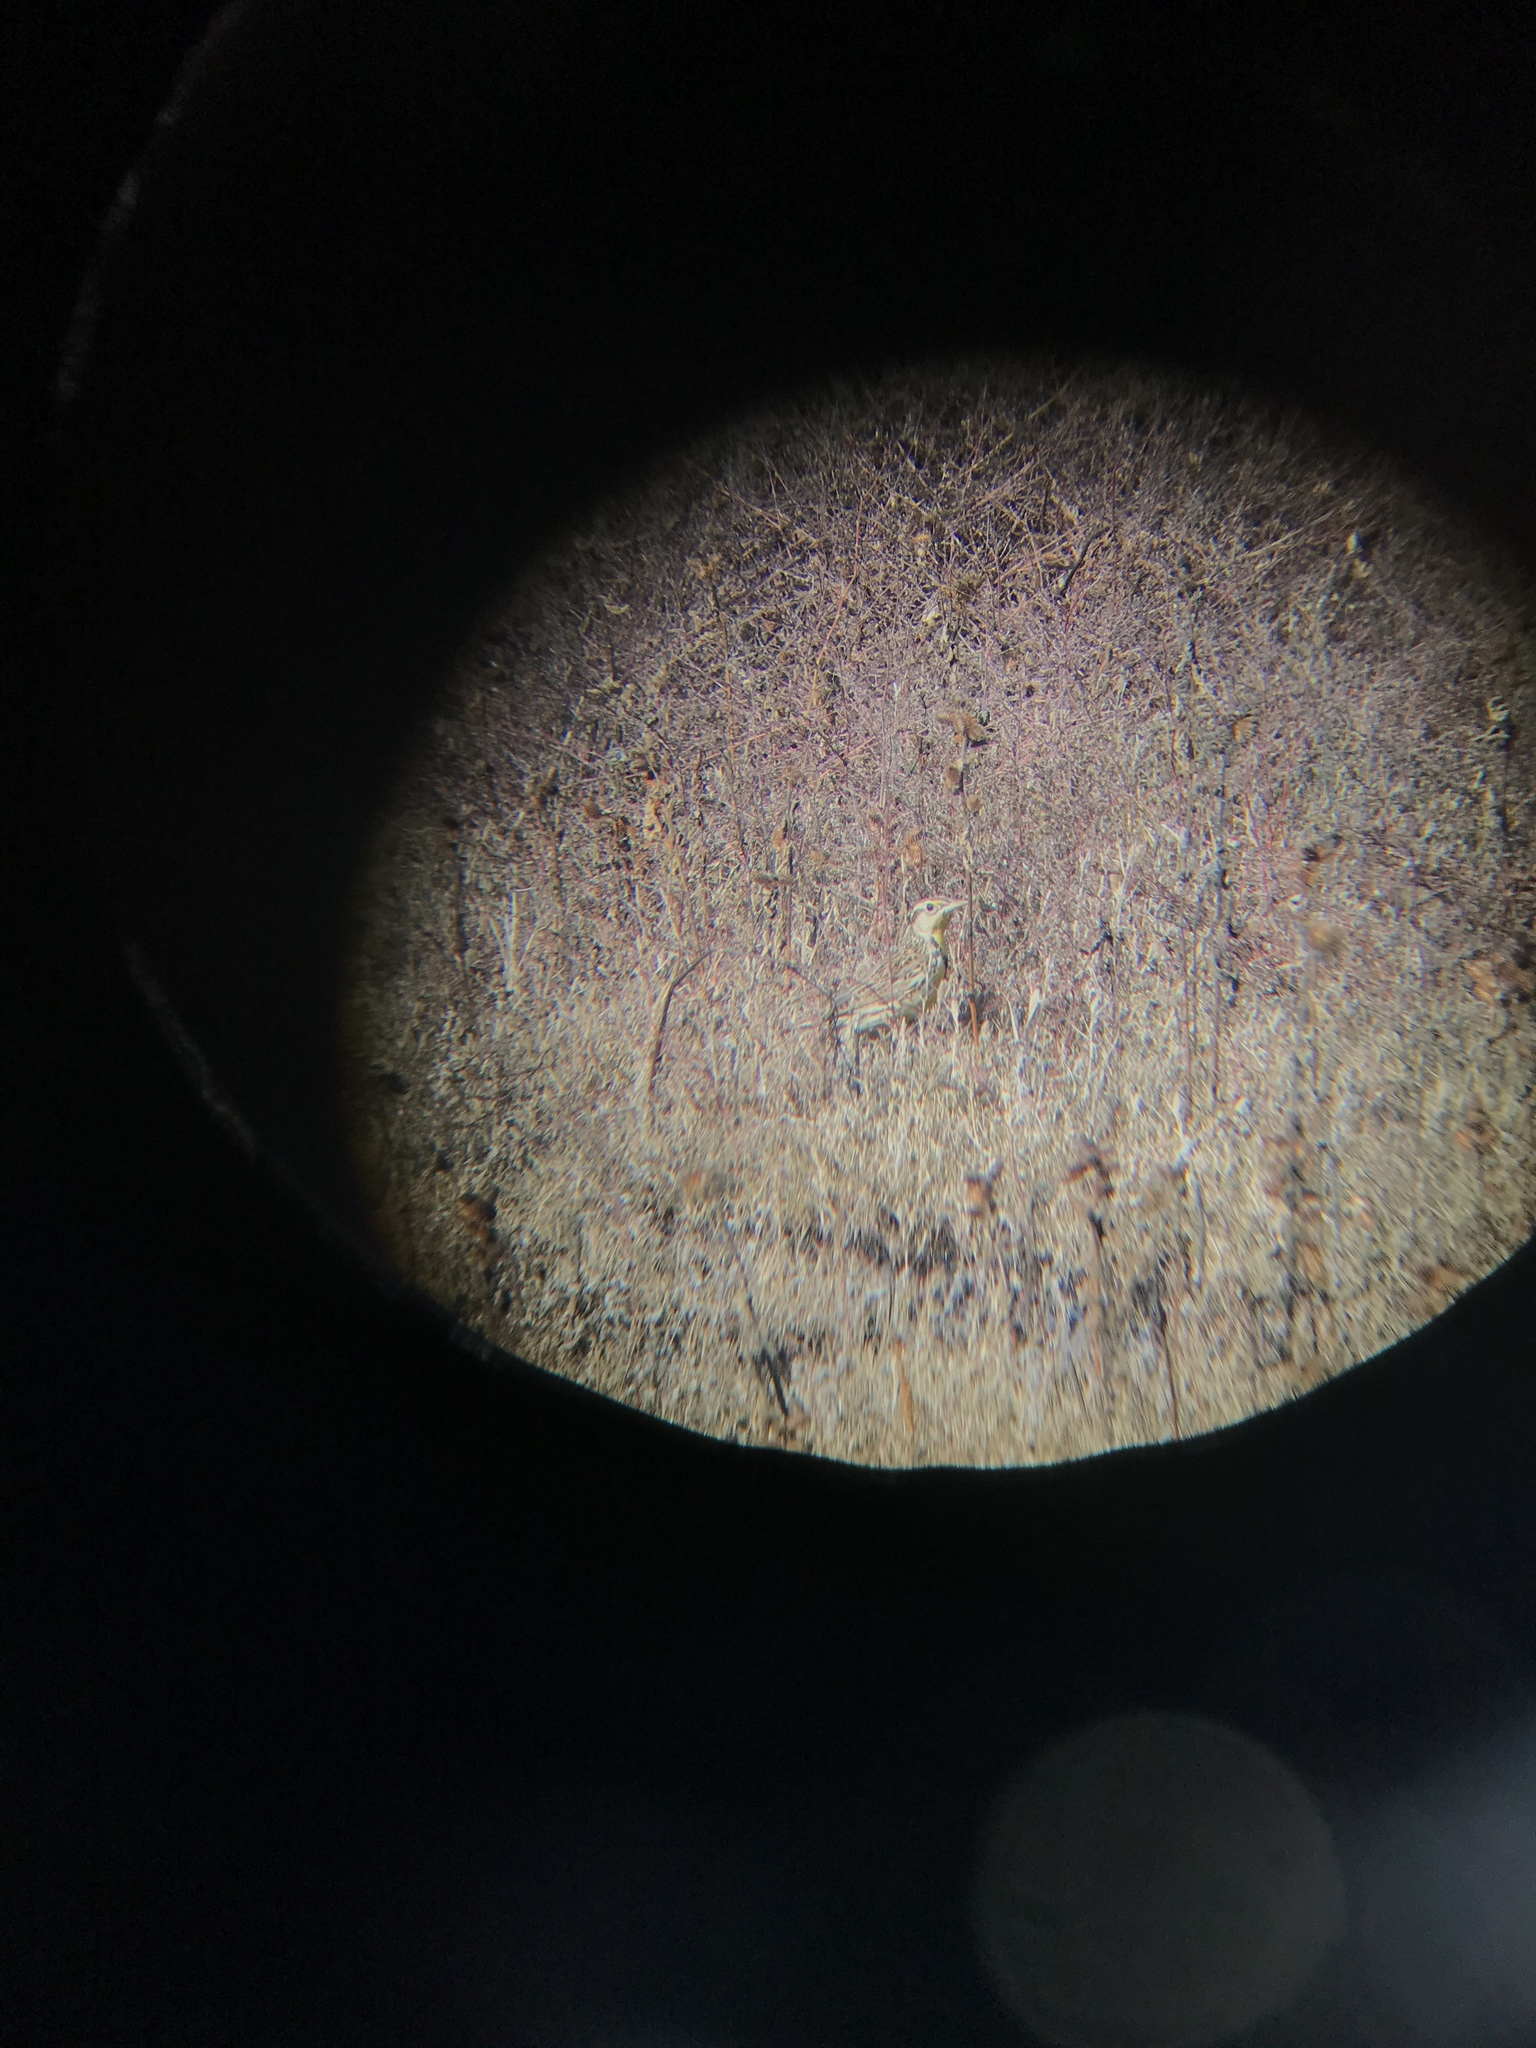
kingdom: Animalia
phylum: Chordata
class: Aves
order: Passeriformes
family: Icteridae
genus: Sturnella
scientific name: Sturnella neglecta
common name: Western meadowlark
